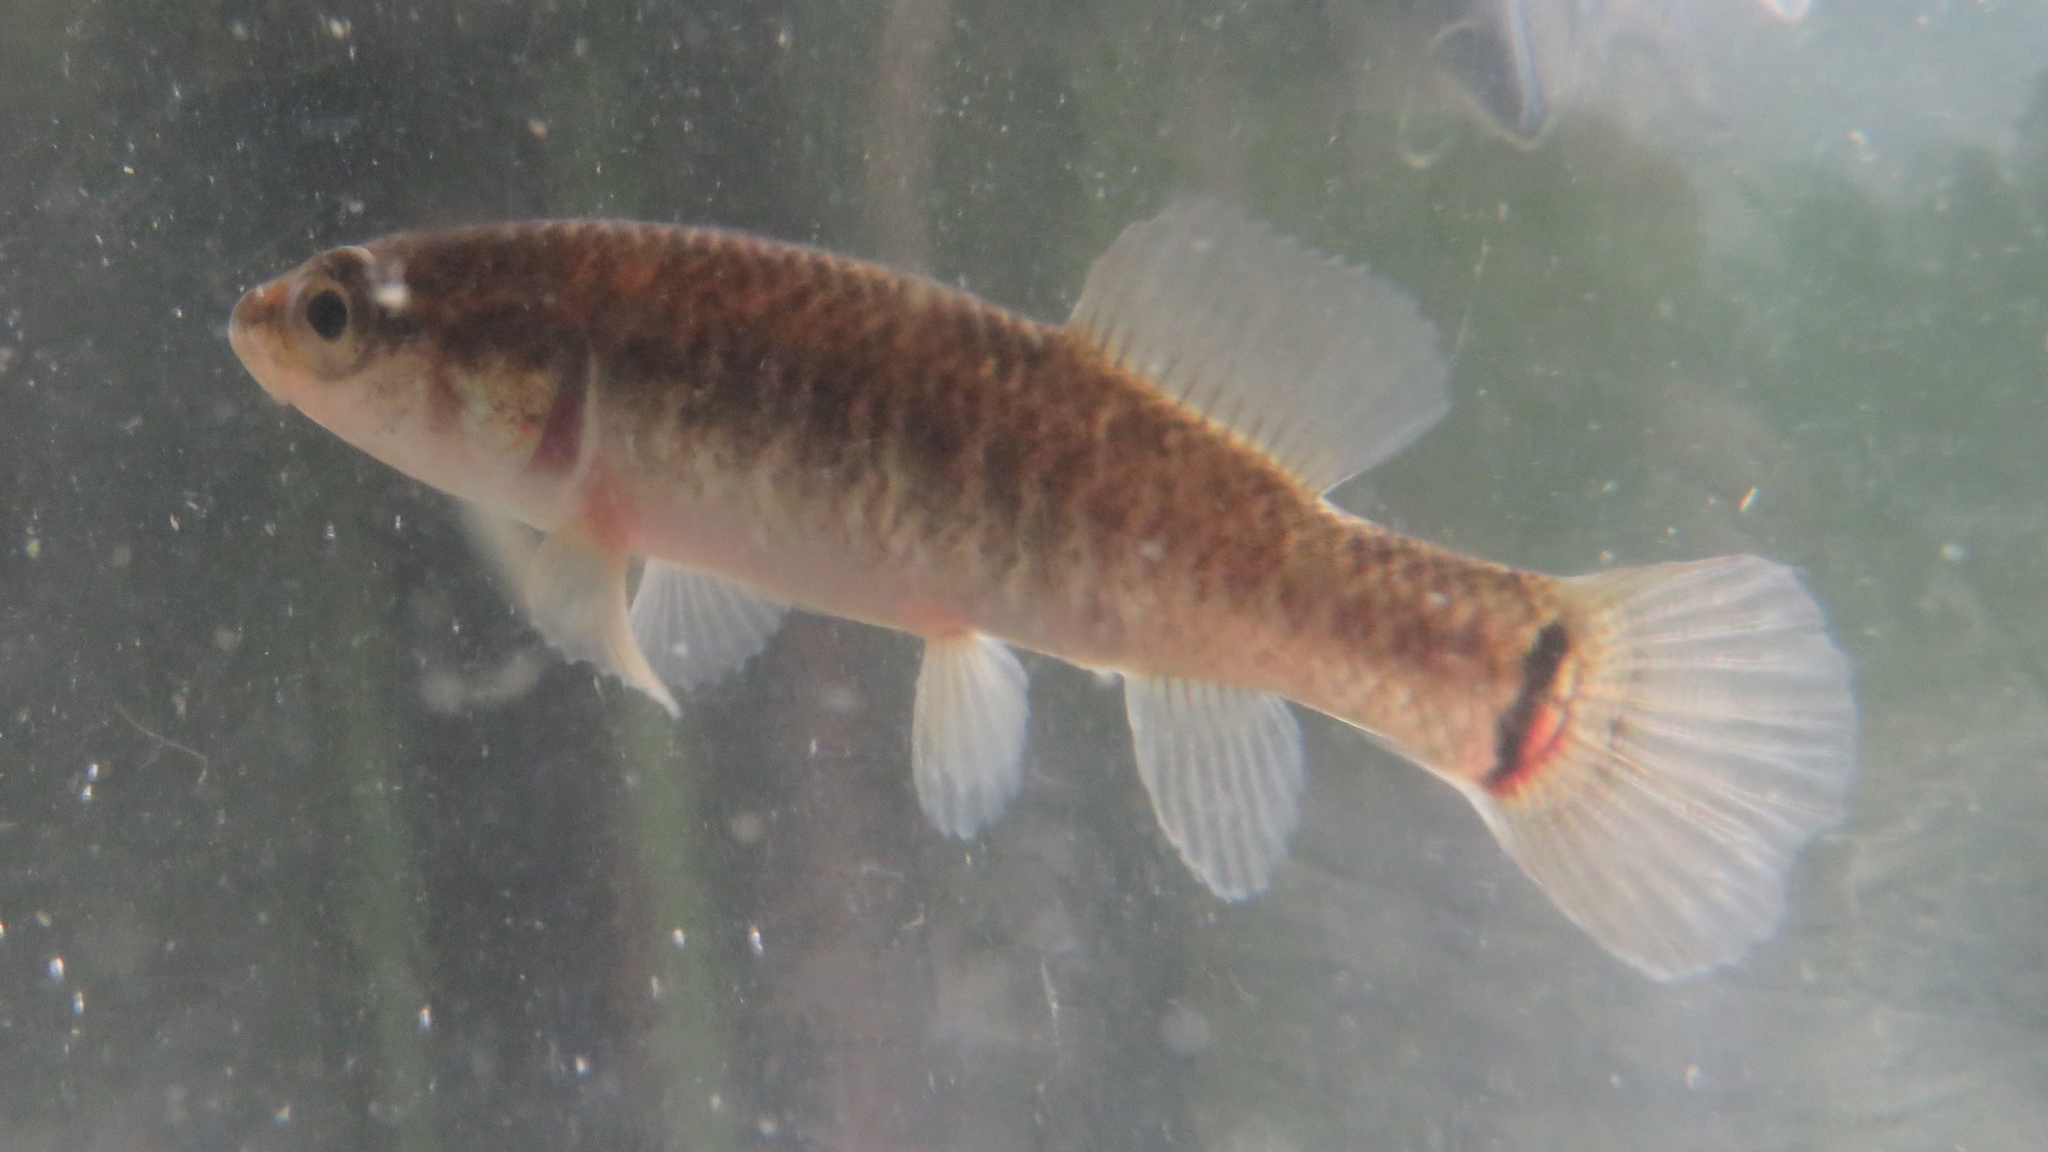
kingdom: Animalia
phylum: Chordata
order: Esociformes
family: Umbridae
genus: Umbra
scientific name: Umbra limi
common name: Central mudminnow
